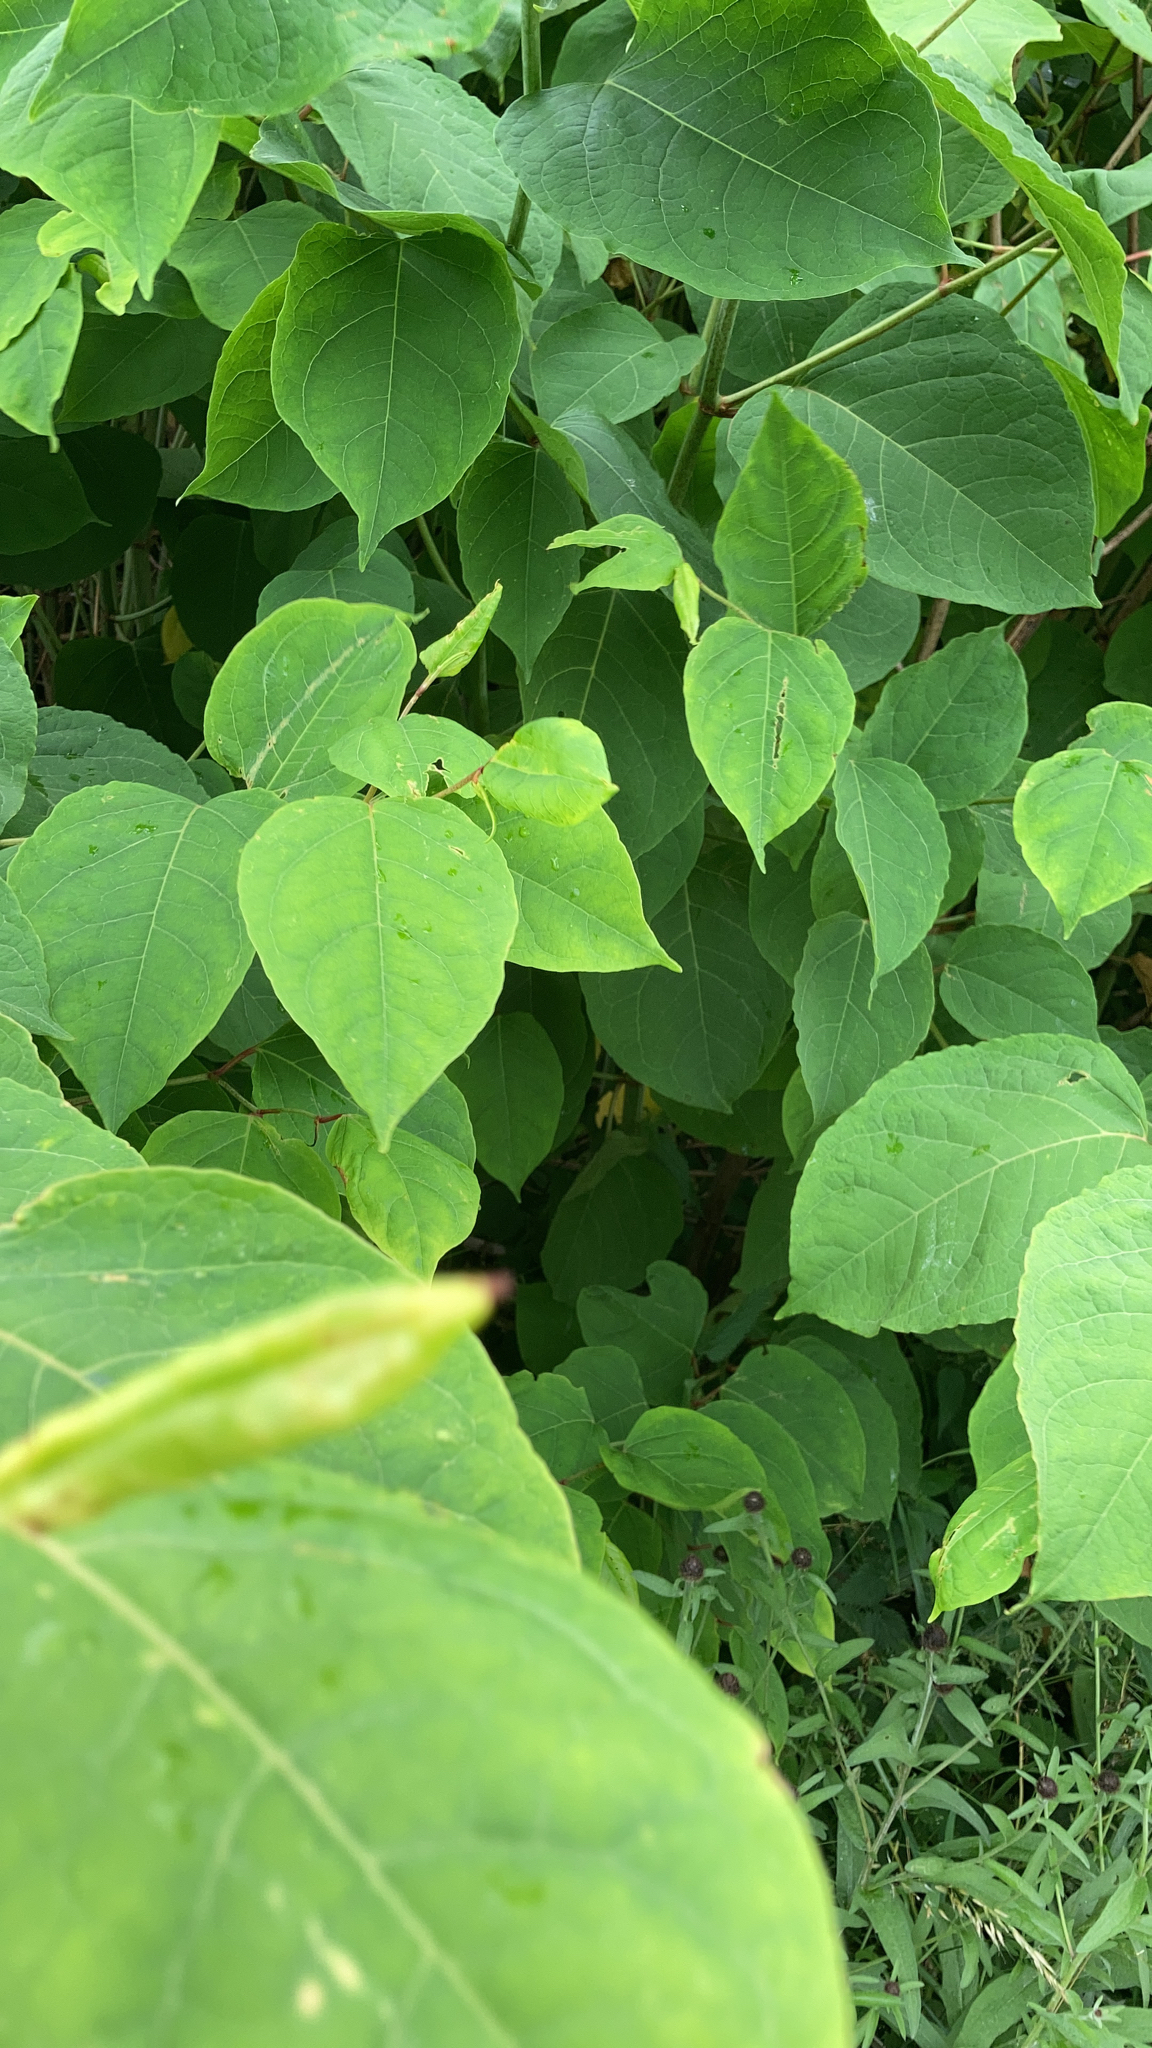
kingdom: Plantae
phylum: Tracheophyta
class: Magnoliopsida
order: Caryophyllales
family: Polygonaceae
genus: Reynoutria
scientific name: Reynoutria japonica
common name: Japanese knotweed
